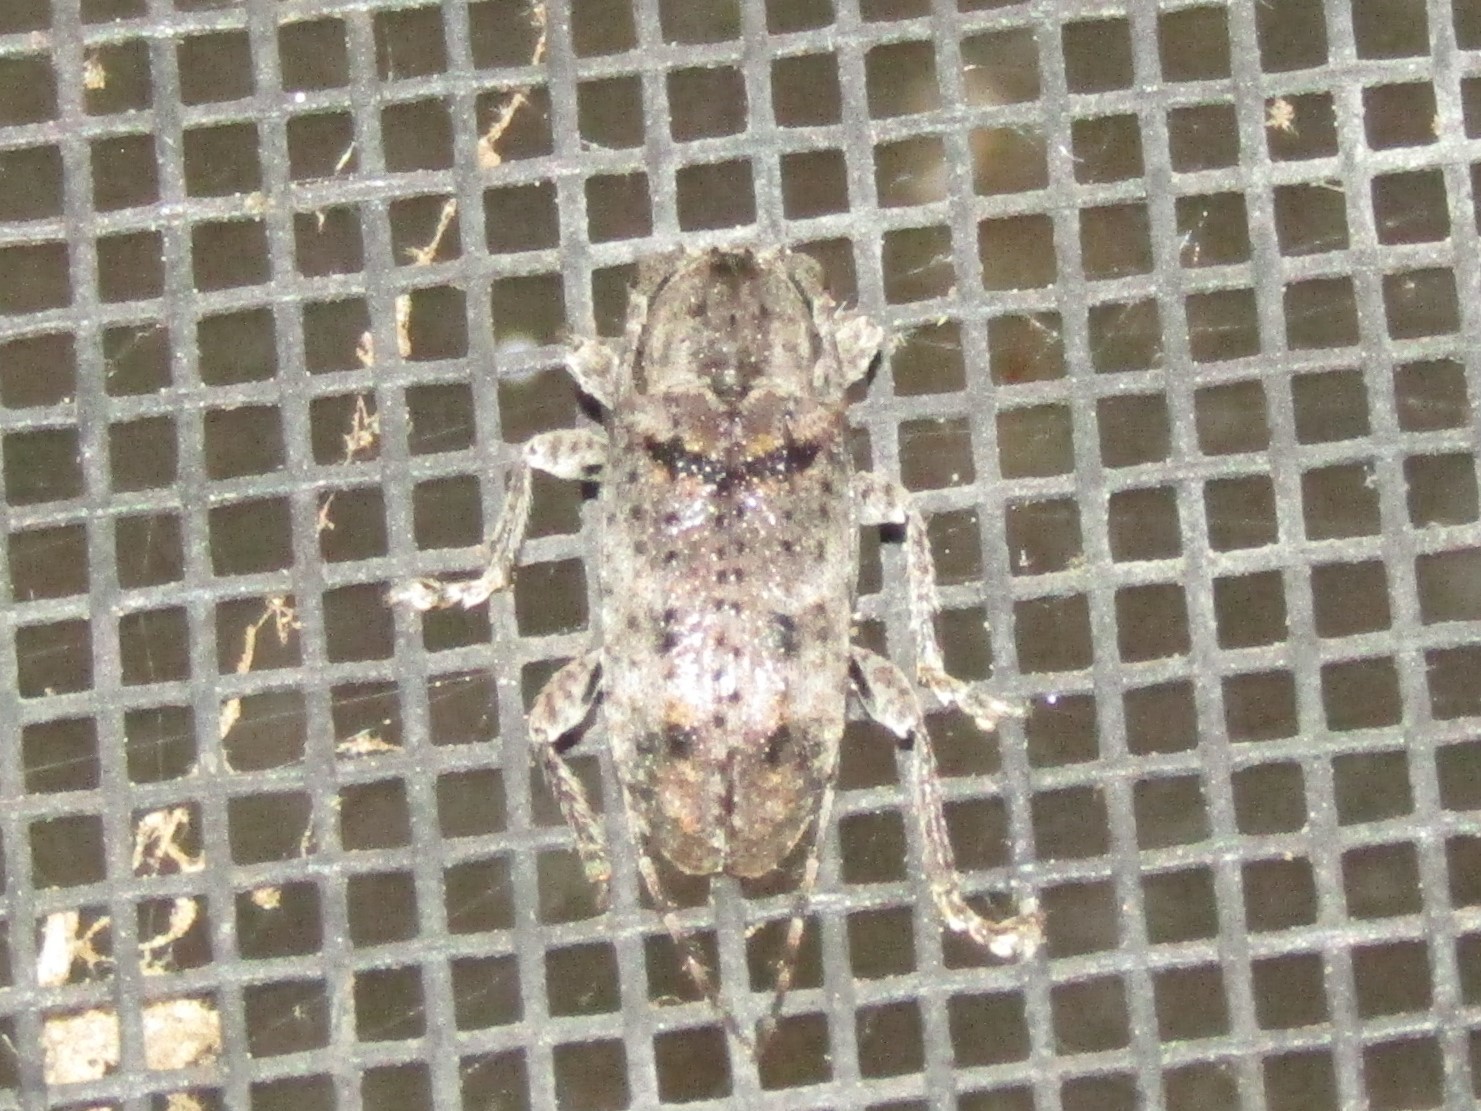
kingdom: Animalia
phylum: Arthropoda
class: Insecta
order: Coleoptera
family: Cerambycidae
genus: Ecyrus
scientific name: Ecyrus dasycerus
